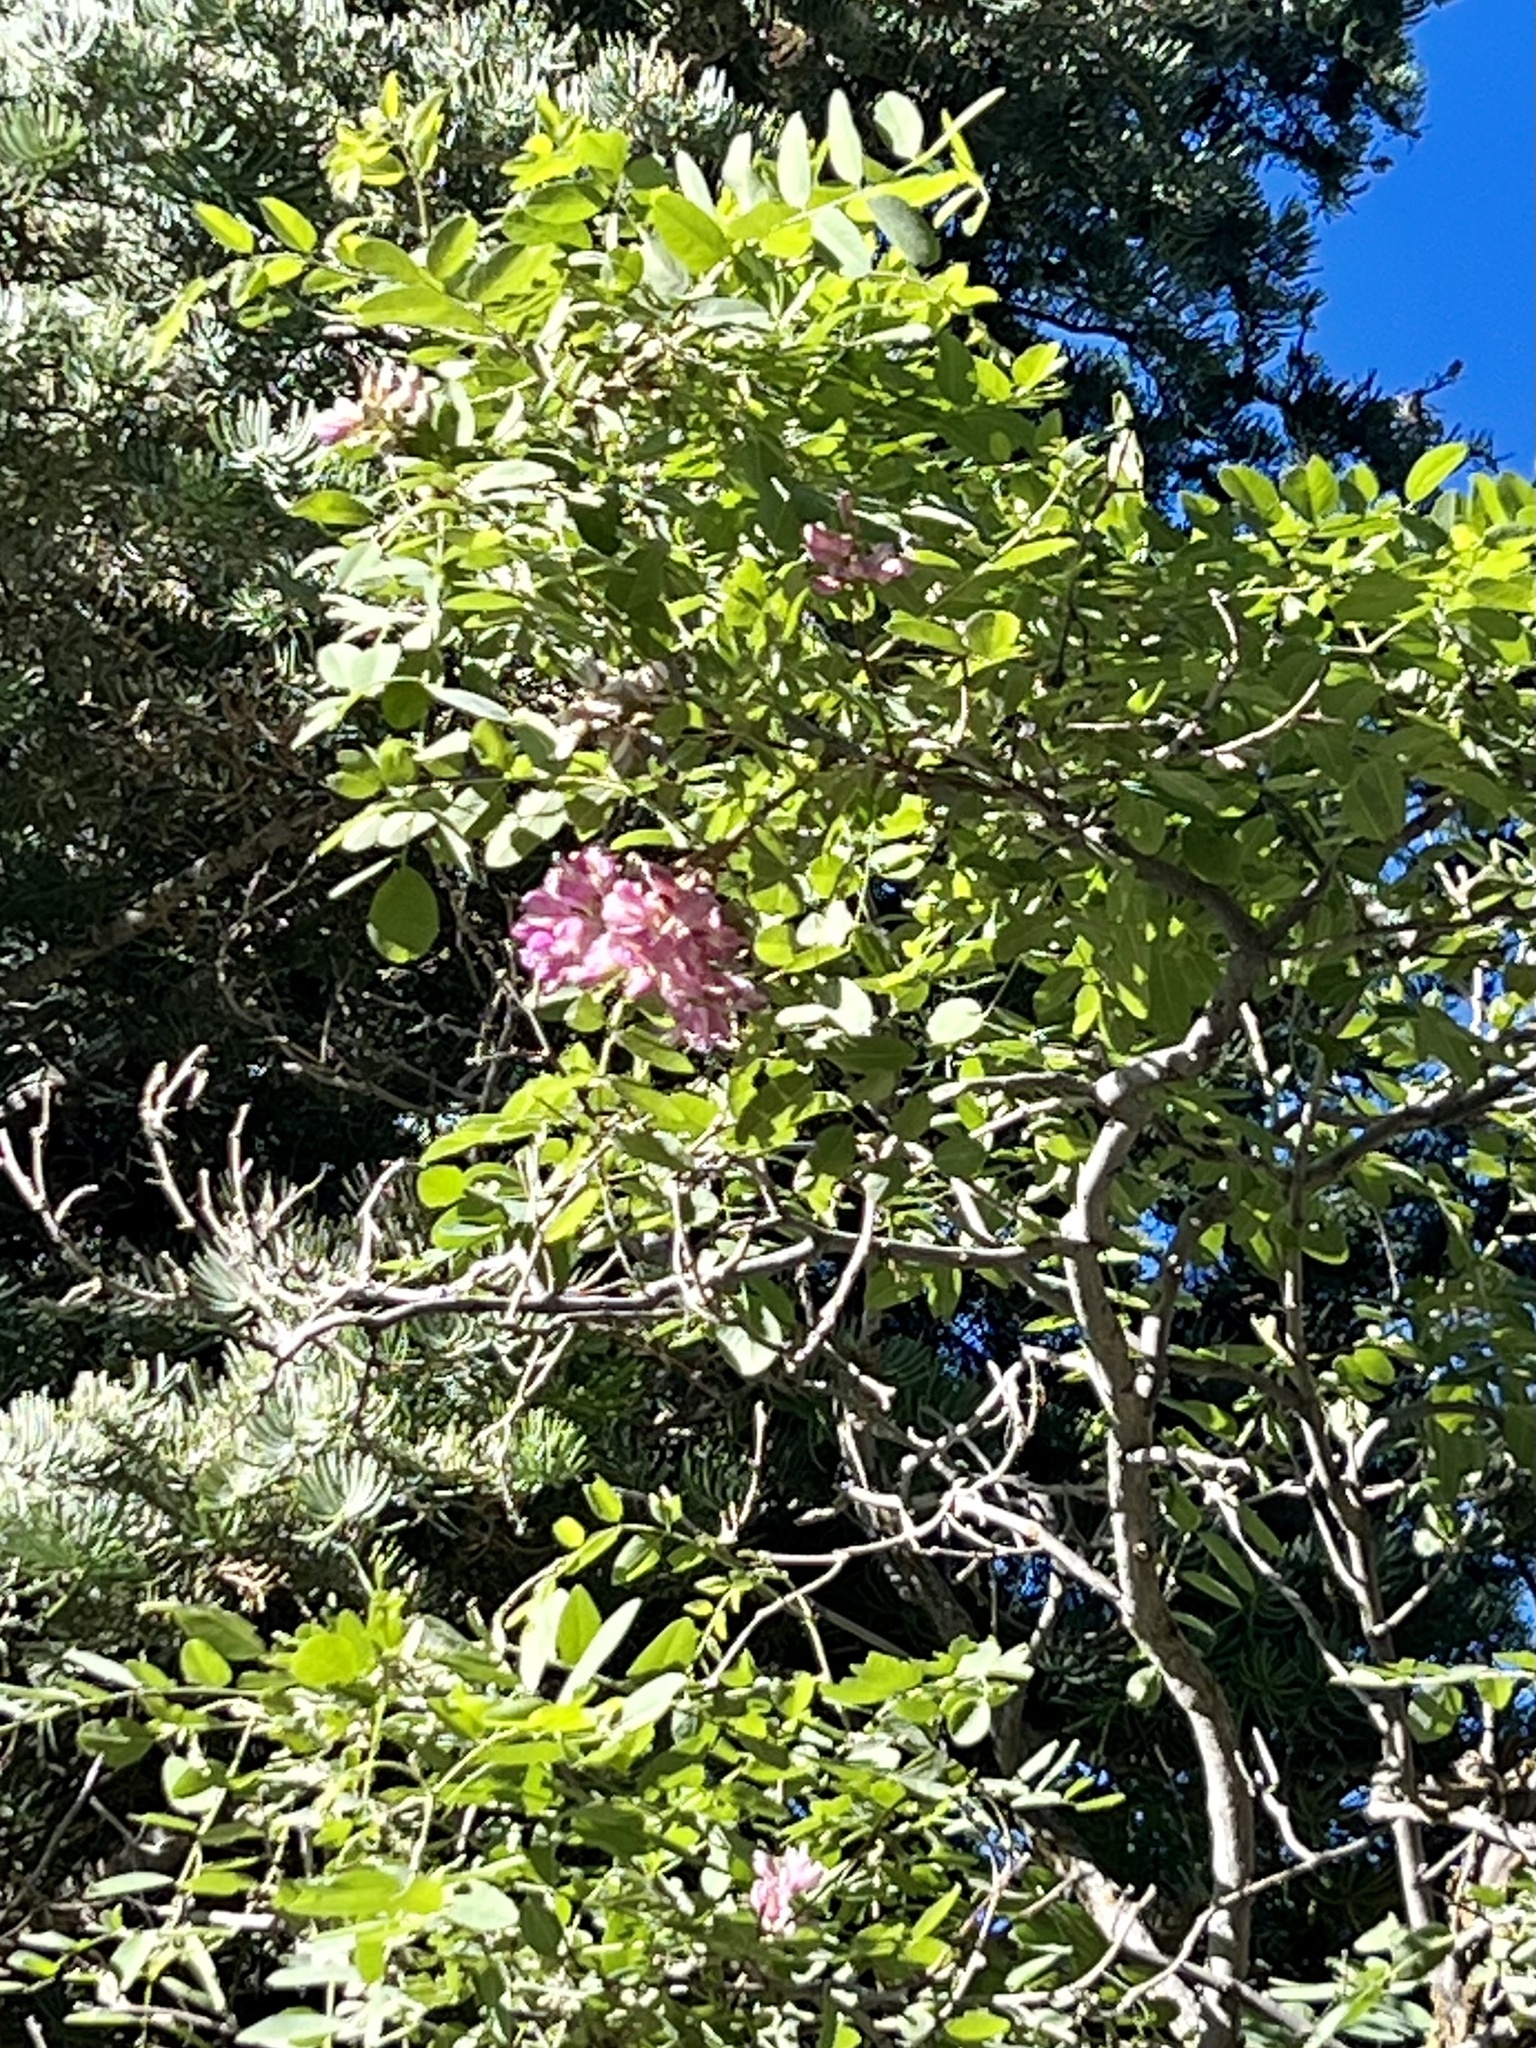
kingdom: Plantae
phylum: Tracheophyta
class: Magnoliopsida
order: Fabales
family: Fabaceae
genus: Robinia
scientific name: Robinia neomexicana
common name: New mexico locust
